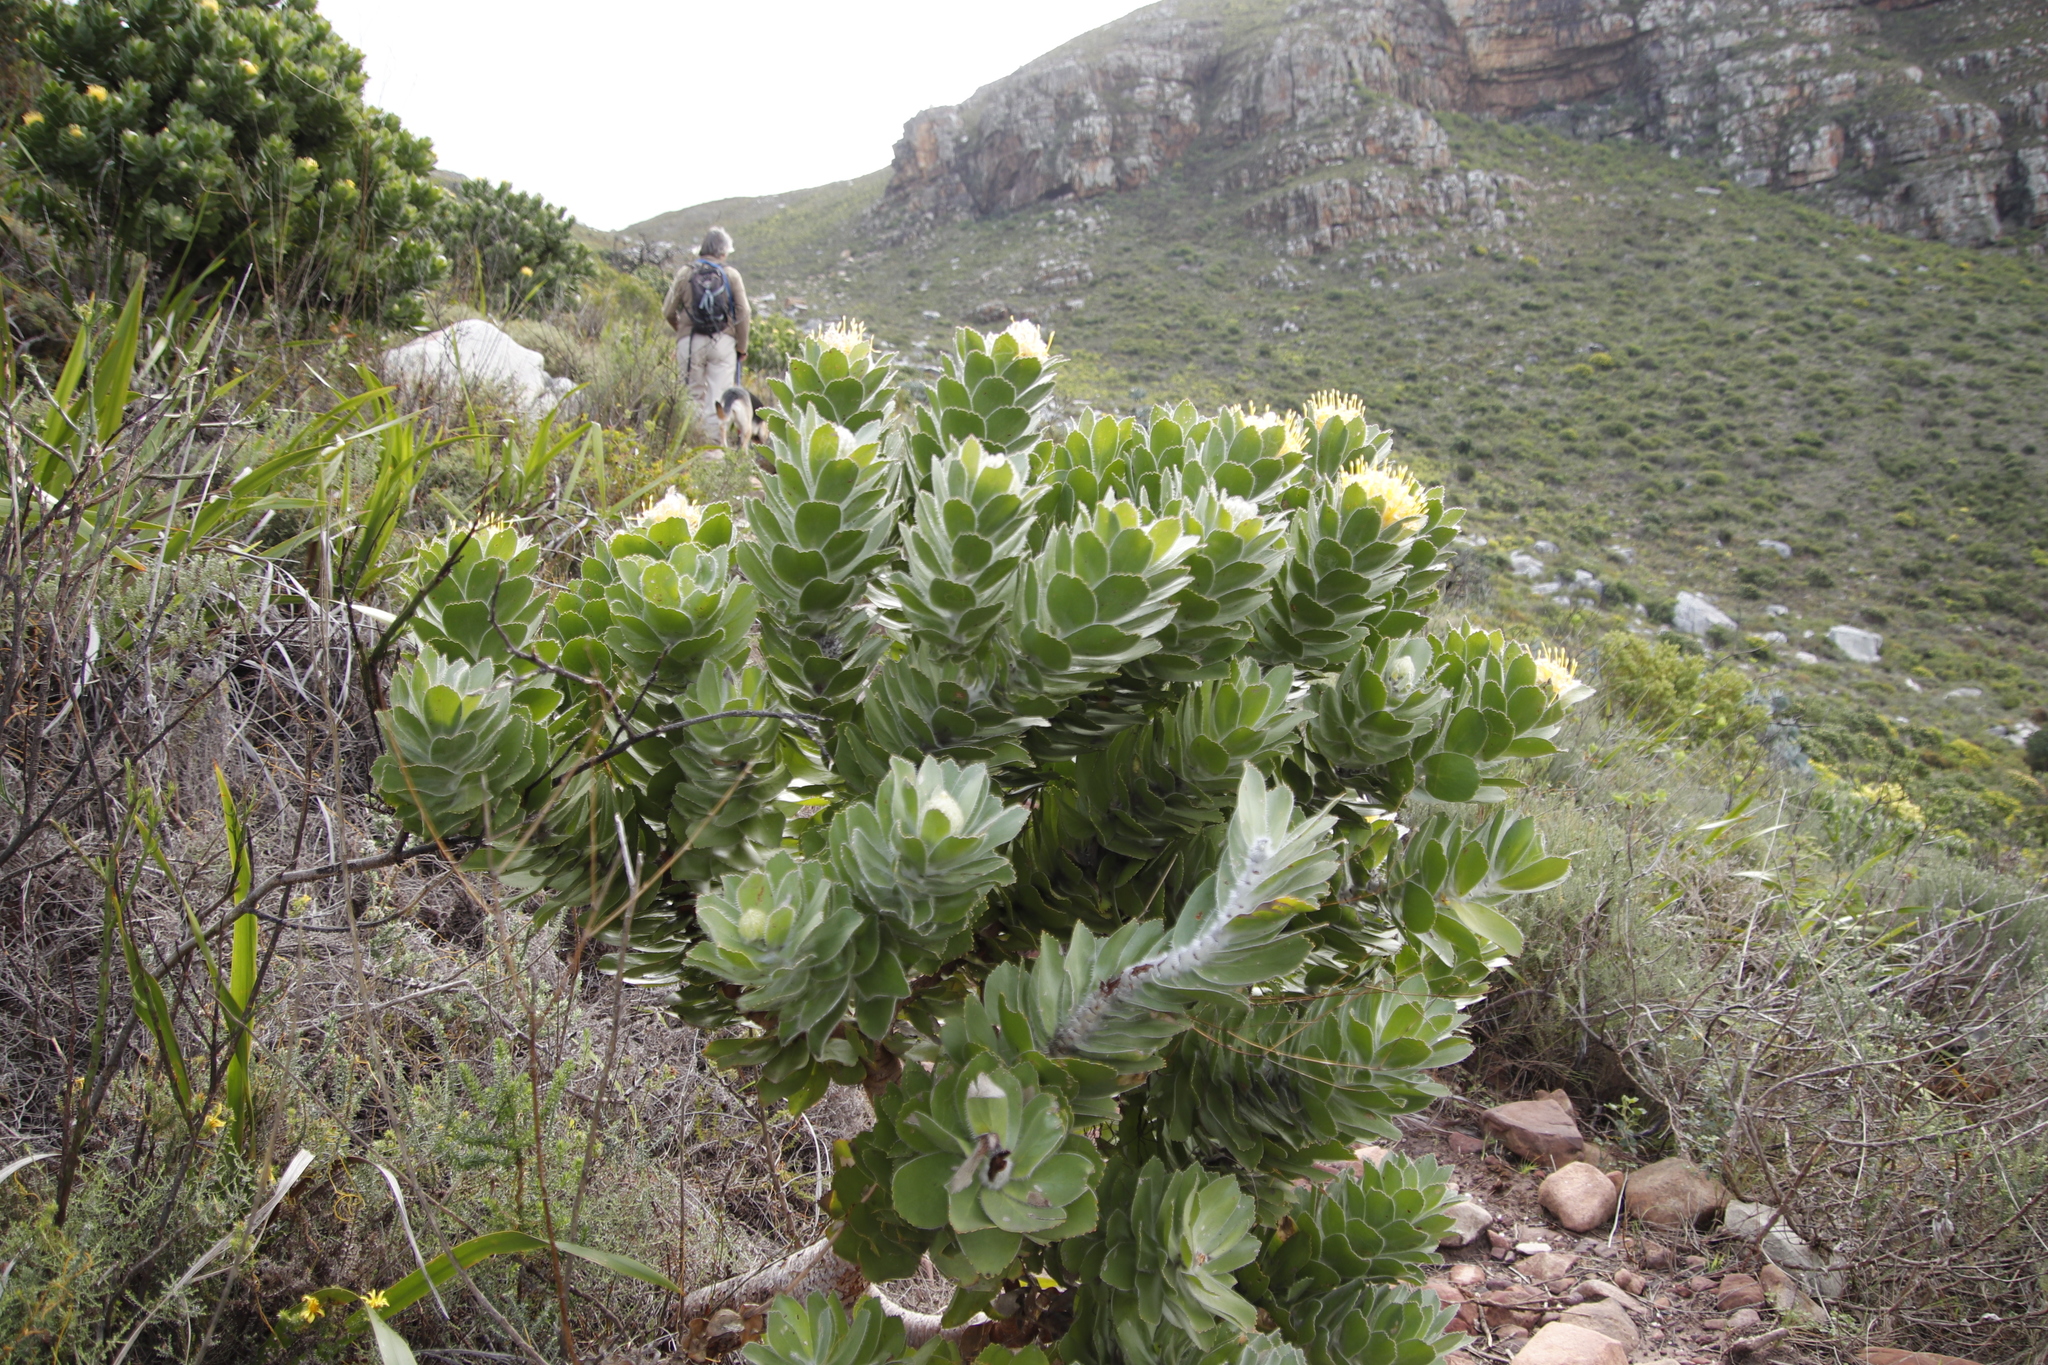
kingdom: Plantae
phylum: Tracheophyta
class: Magnoliopsida
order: Proteales
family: Proteaceae
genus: Leucospermum
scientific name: Leucospermum conocarpodendron
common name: Tree pincushion
